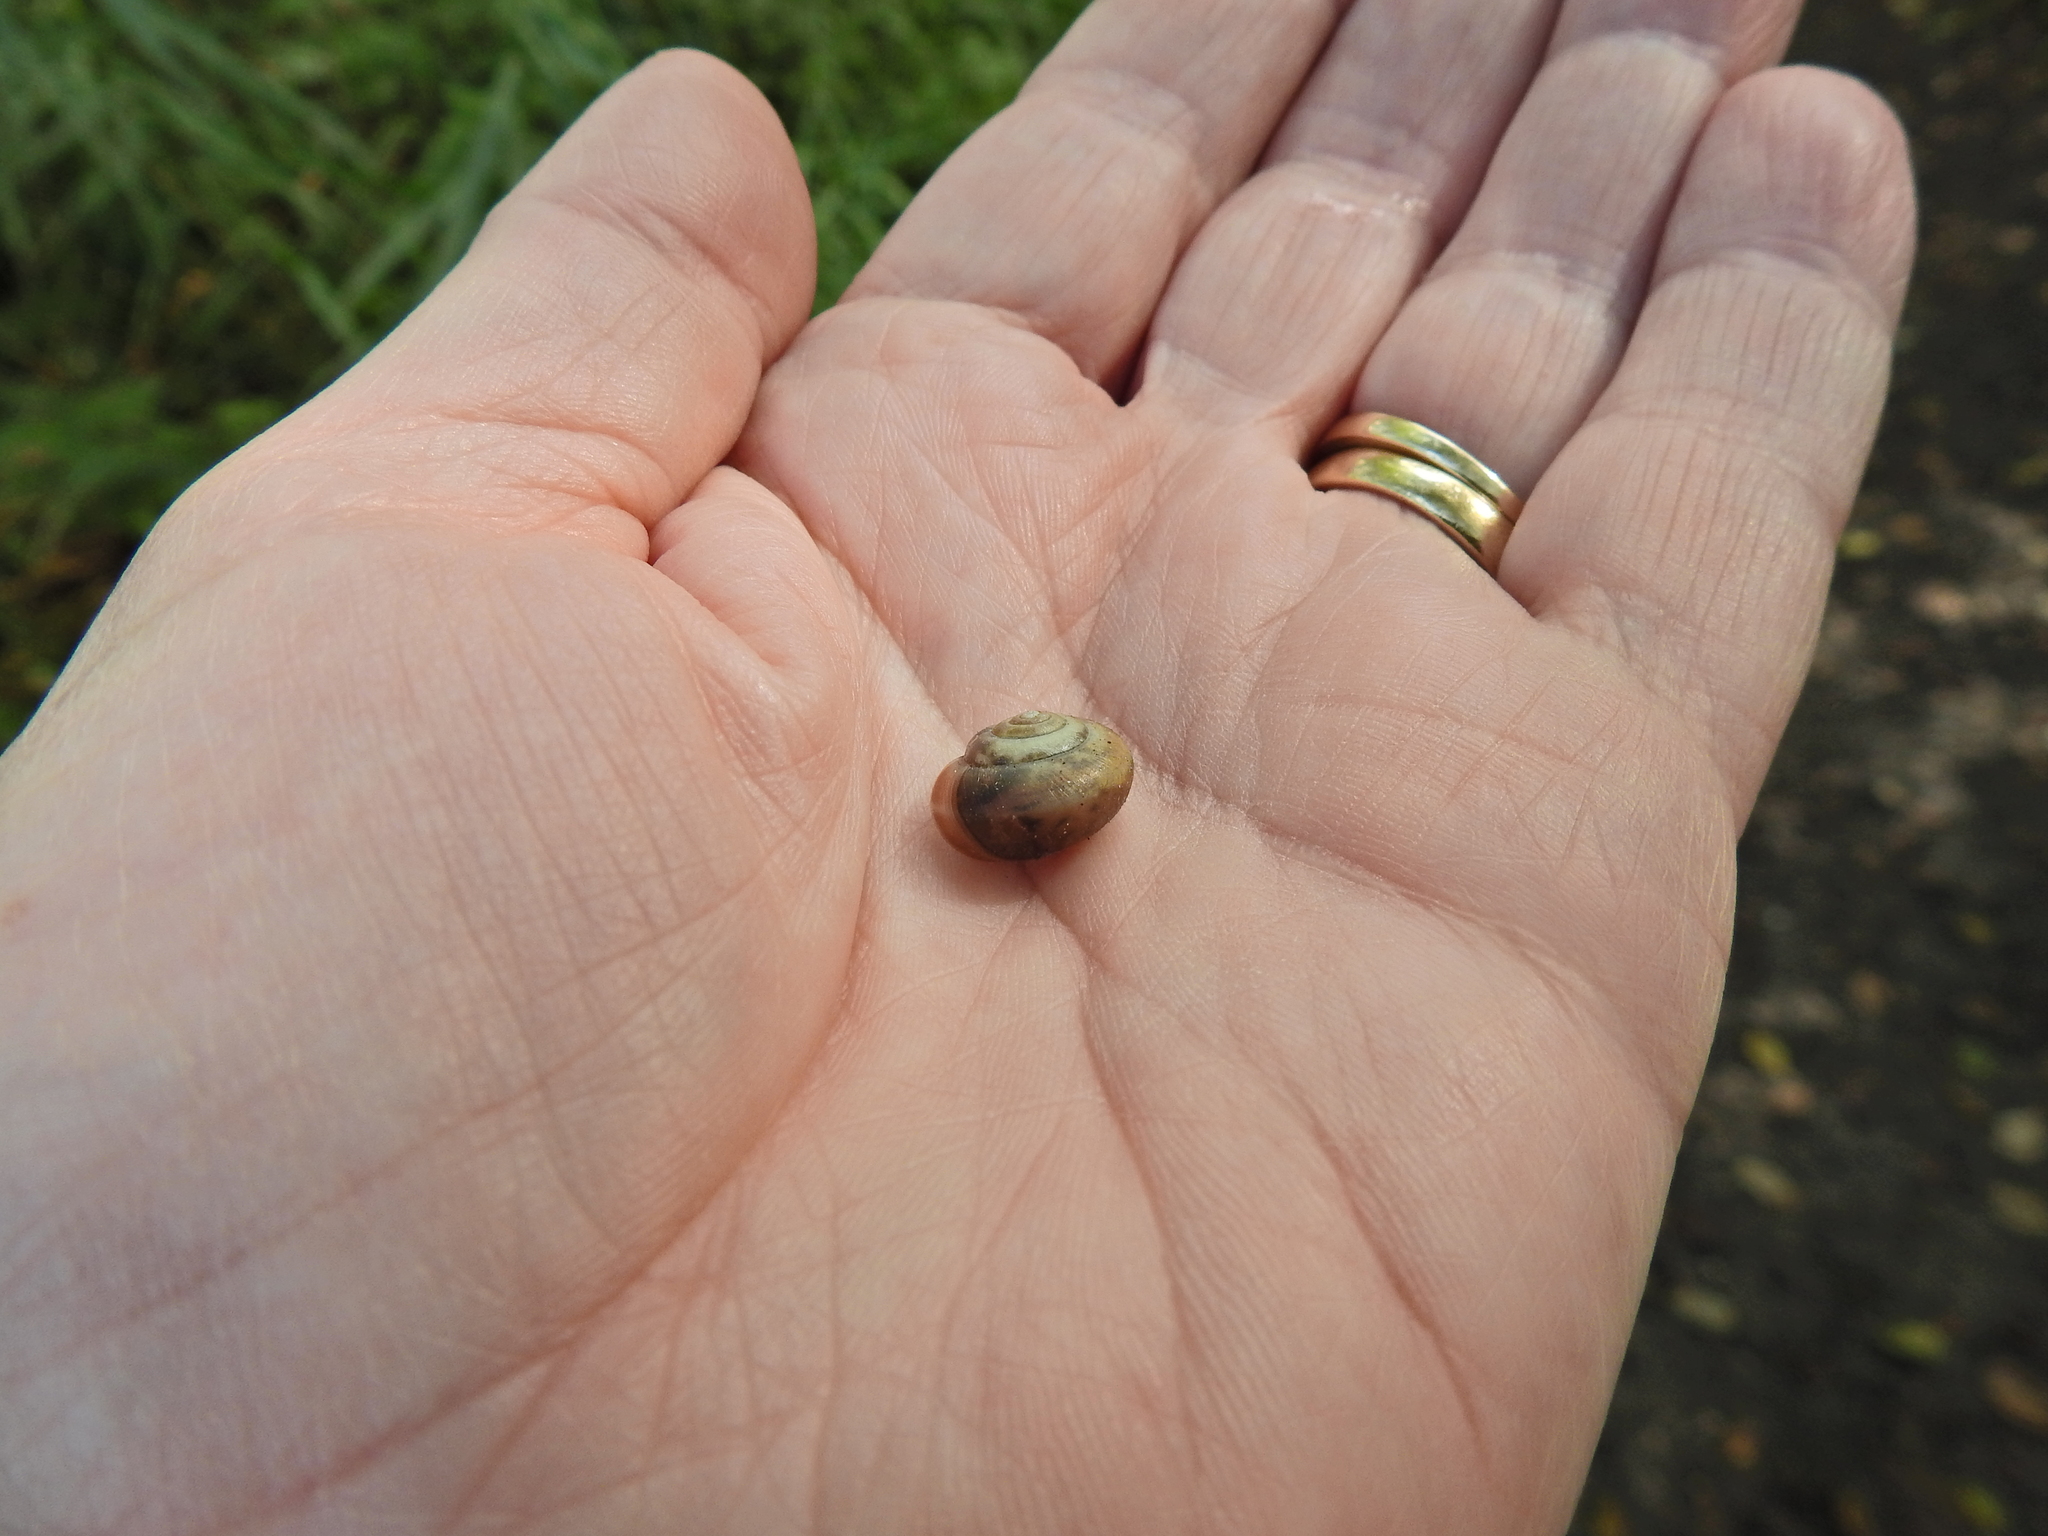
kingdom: Animalia
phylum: Mollusca
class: Gastropoda
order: Stylommatophora
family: Hygromiidae
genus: Monacha
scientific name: Monacha cantiana
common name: Kentish snail
